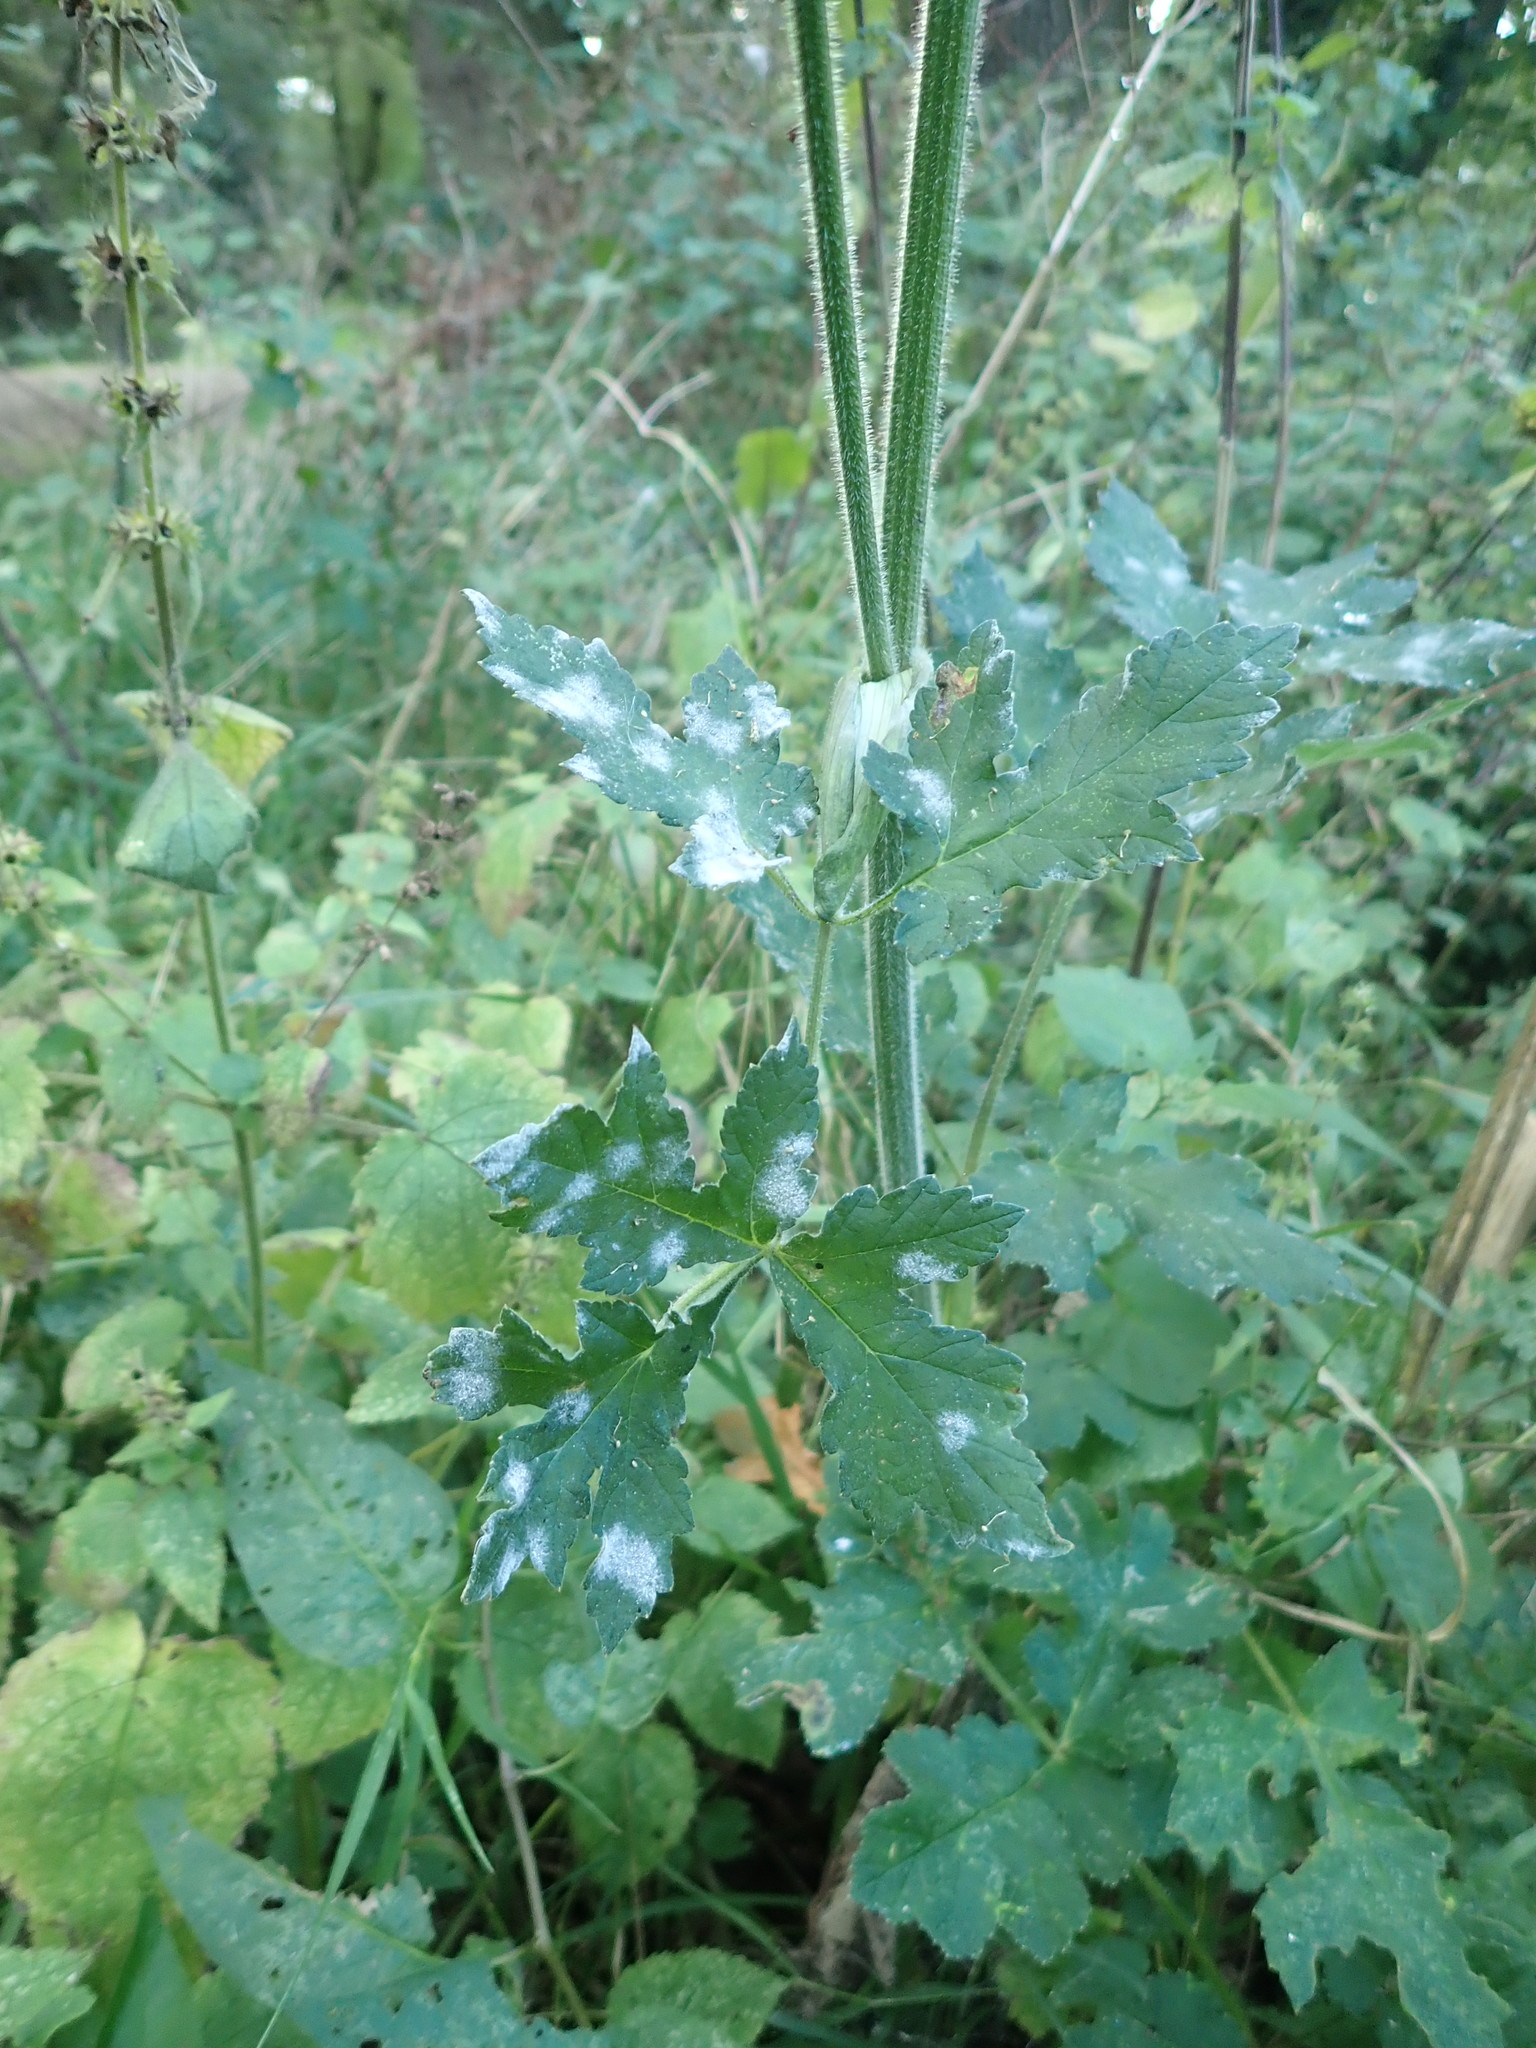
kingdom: Plantae
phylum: Tracheophyta
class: Magnoliopsida
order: Apiales
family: Apiaceae
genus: Heracleum
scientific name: Heracleum sphondylium
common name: Hogweed
